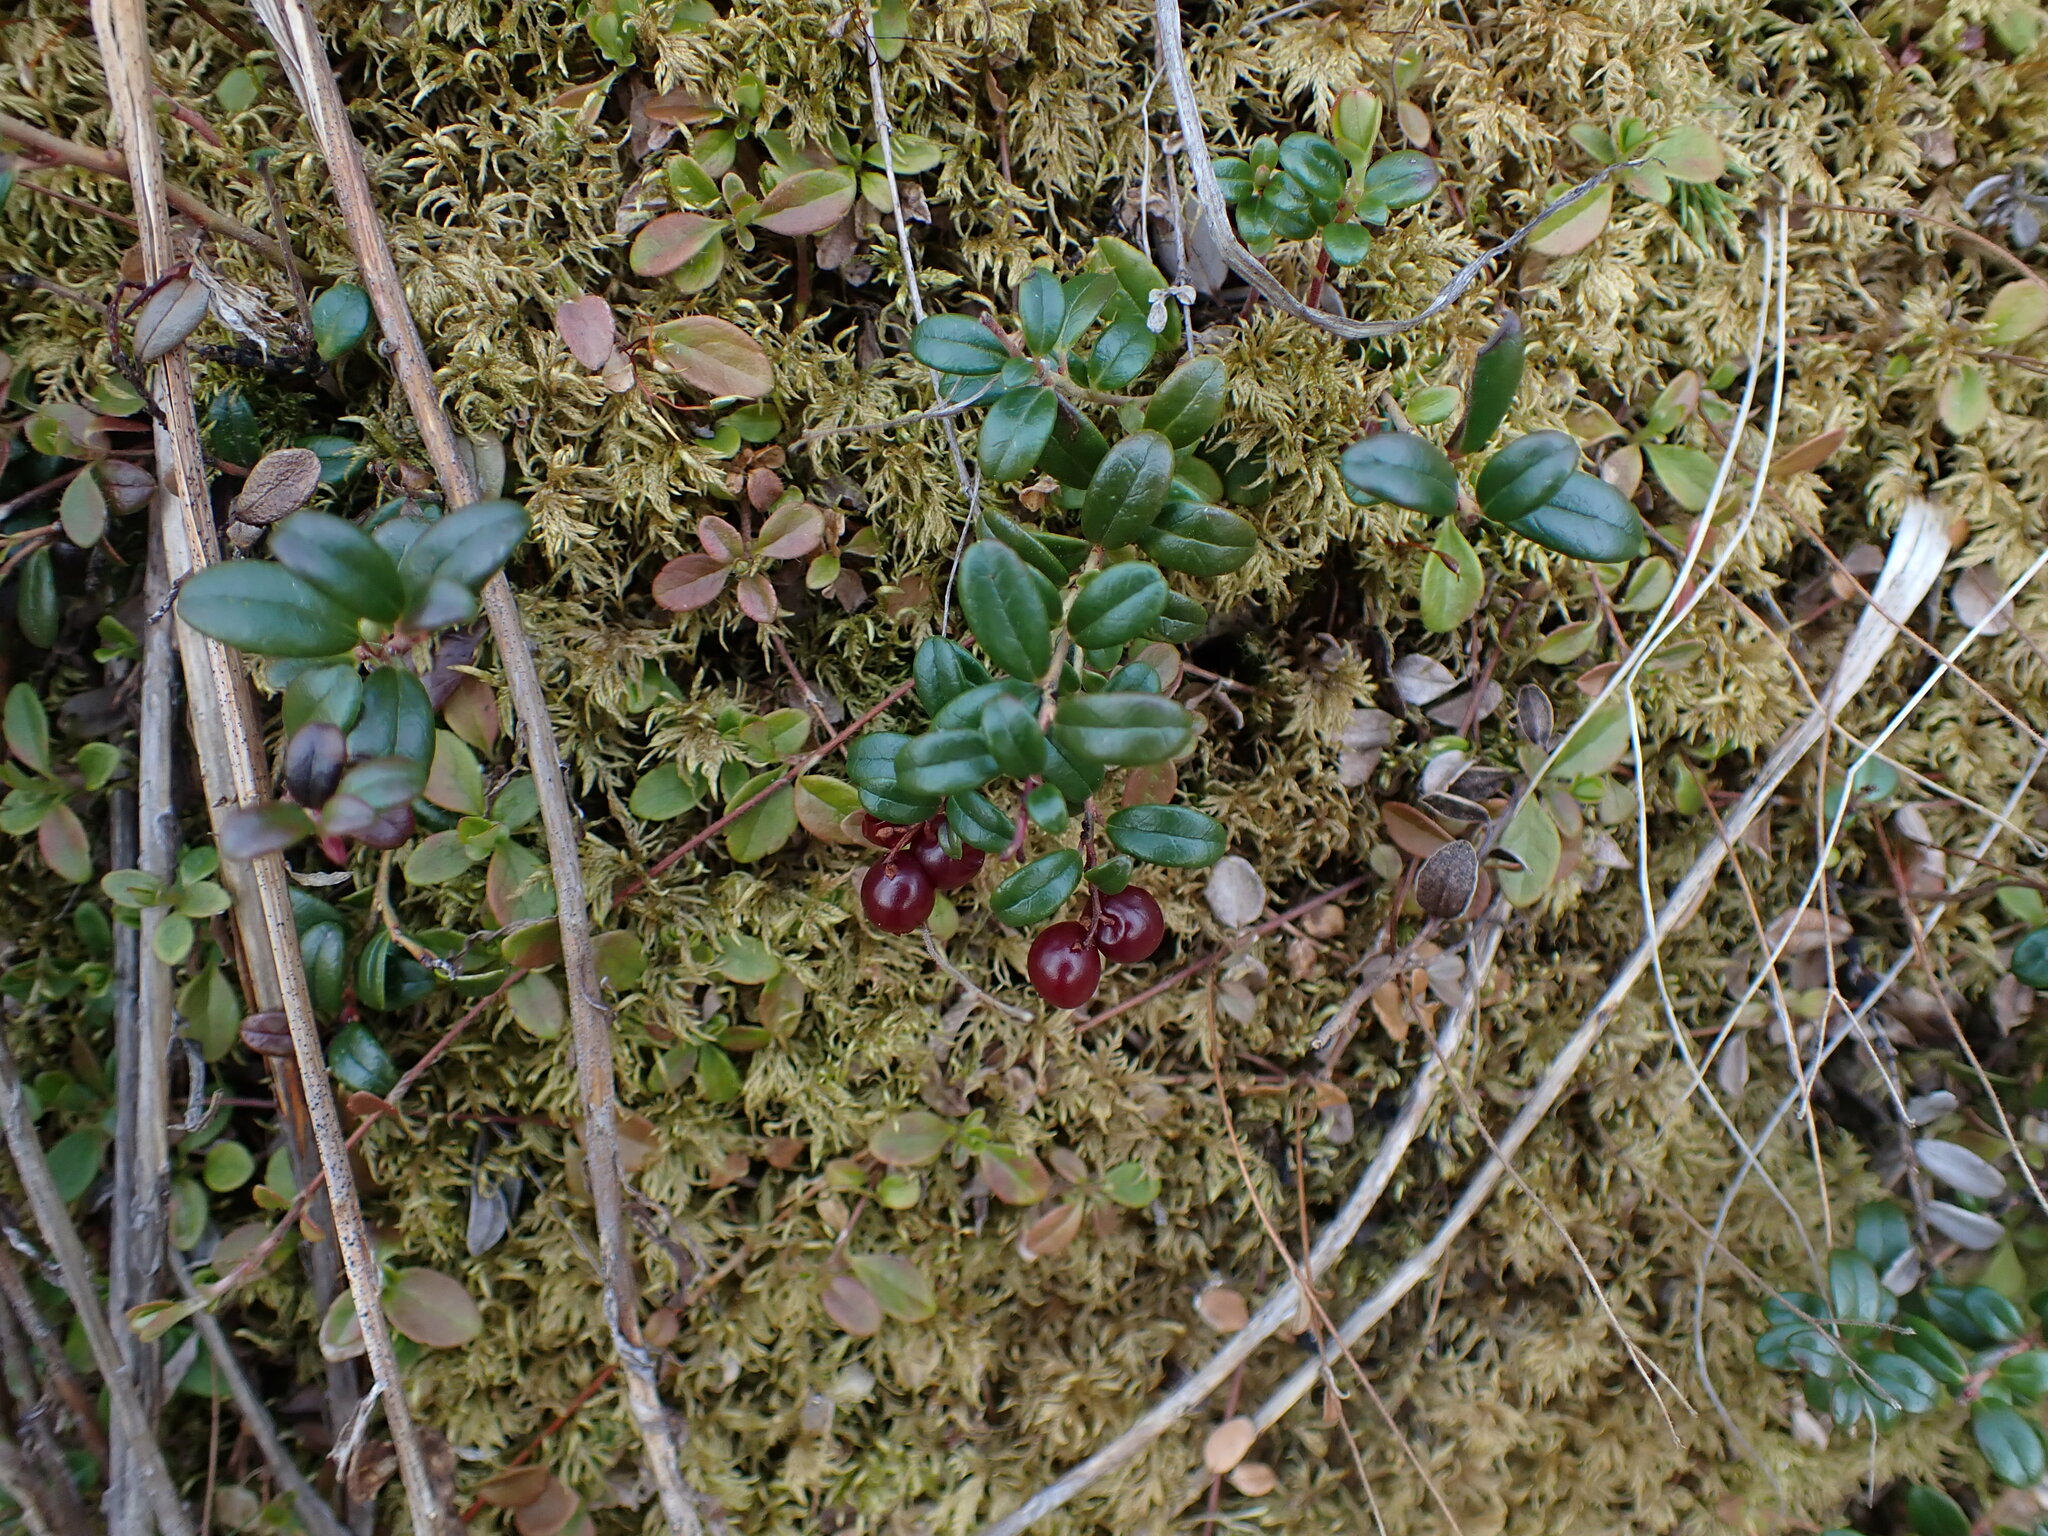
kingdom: Plantae
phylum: Tracheophyta
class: Magnoliopsida
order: Ericales
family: Ericaceae
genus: Vaccinium
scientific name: Vaccinium vitis-idaea
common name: Cowberry
